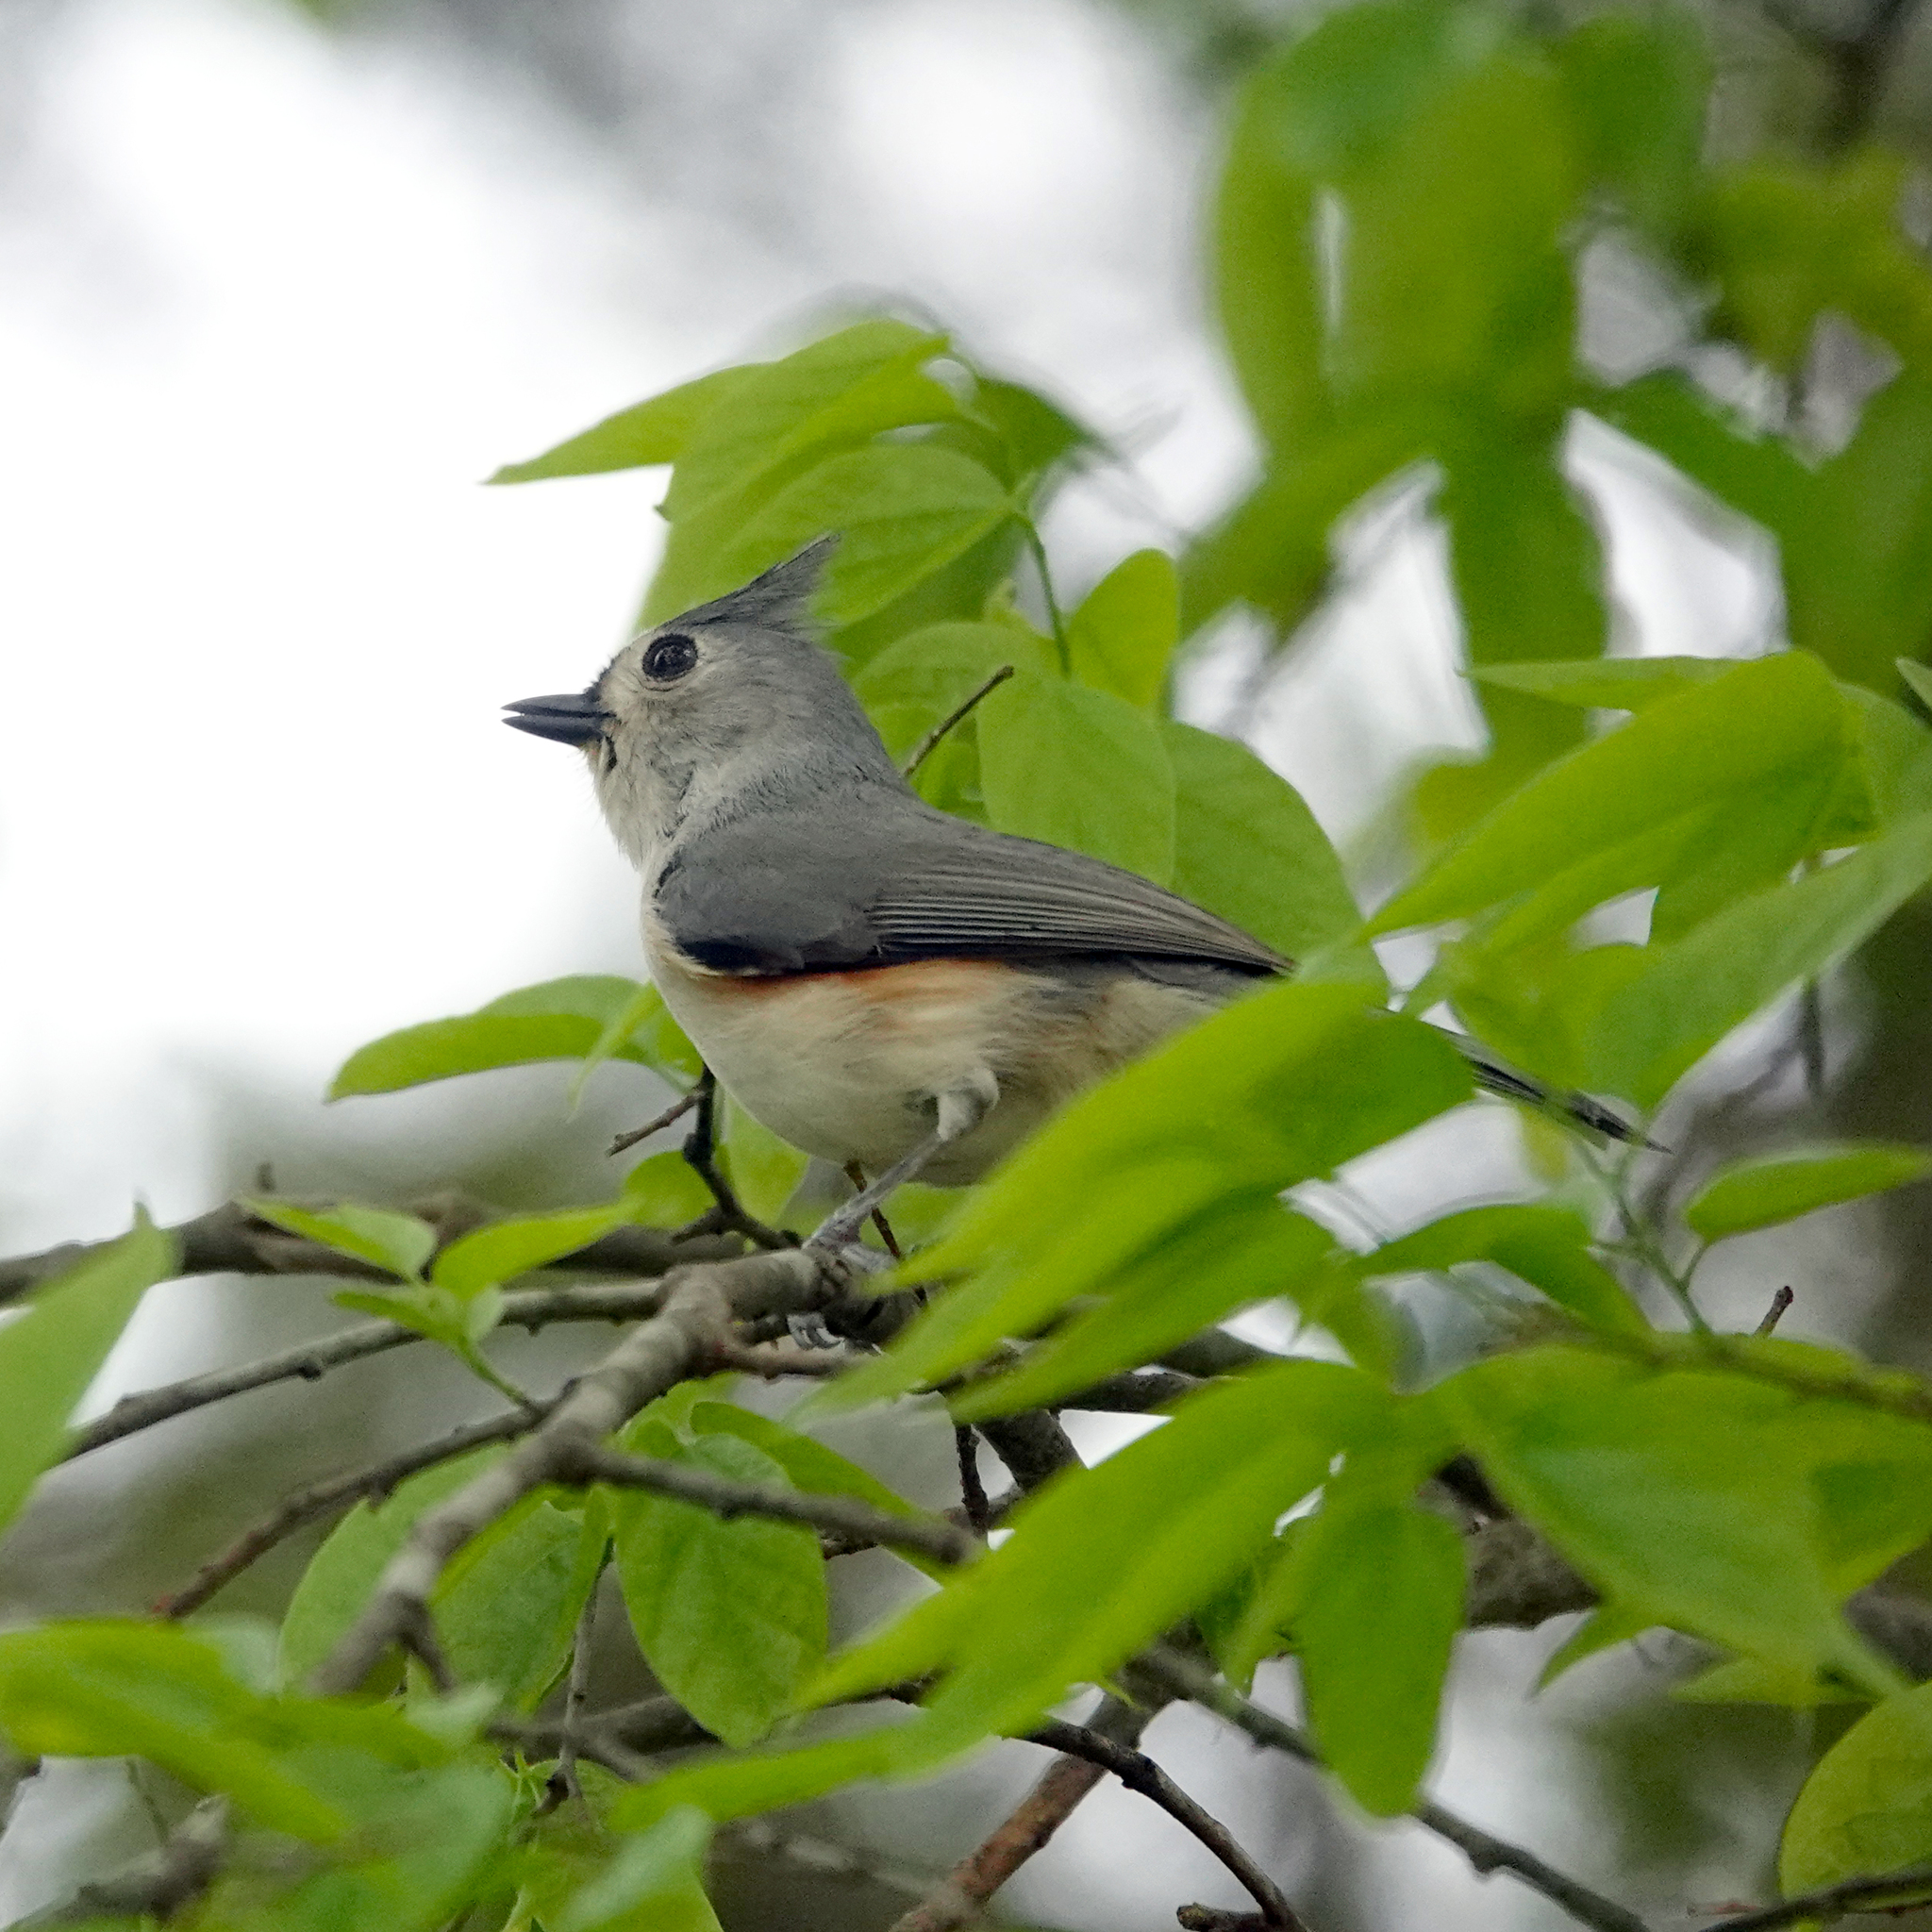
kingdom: Animalia
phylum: Chordata
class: Aves
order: Passeriformes
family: Paridae
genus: Baeolophus
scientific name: Baeolophus bicolor
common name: Tufted titmouse
